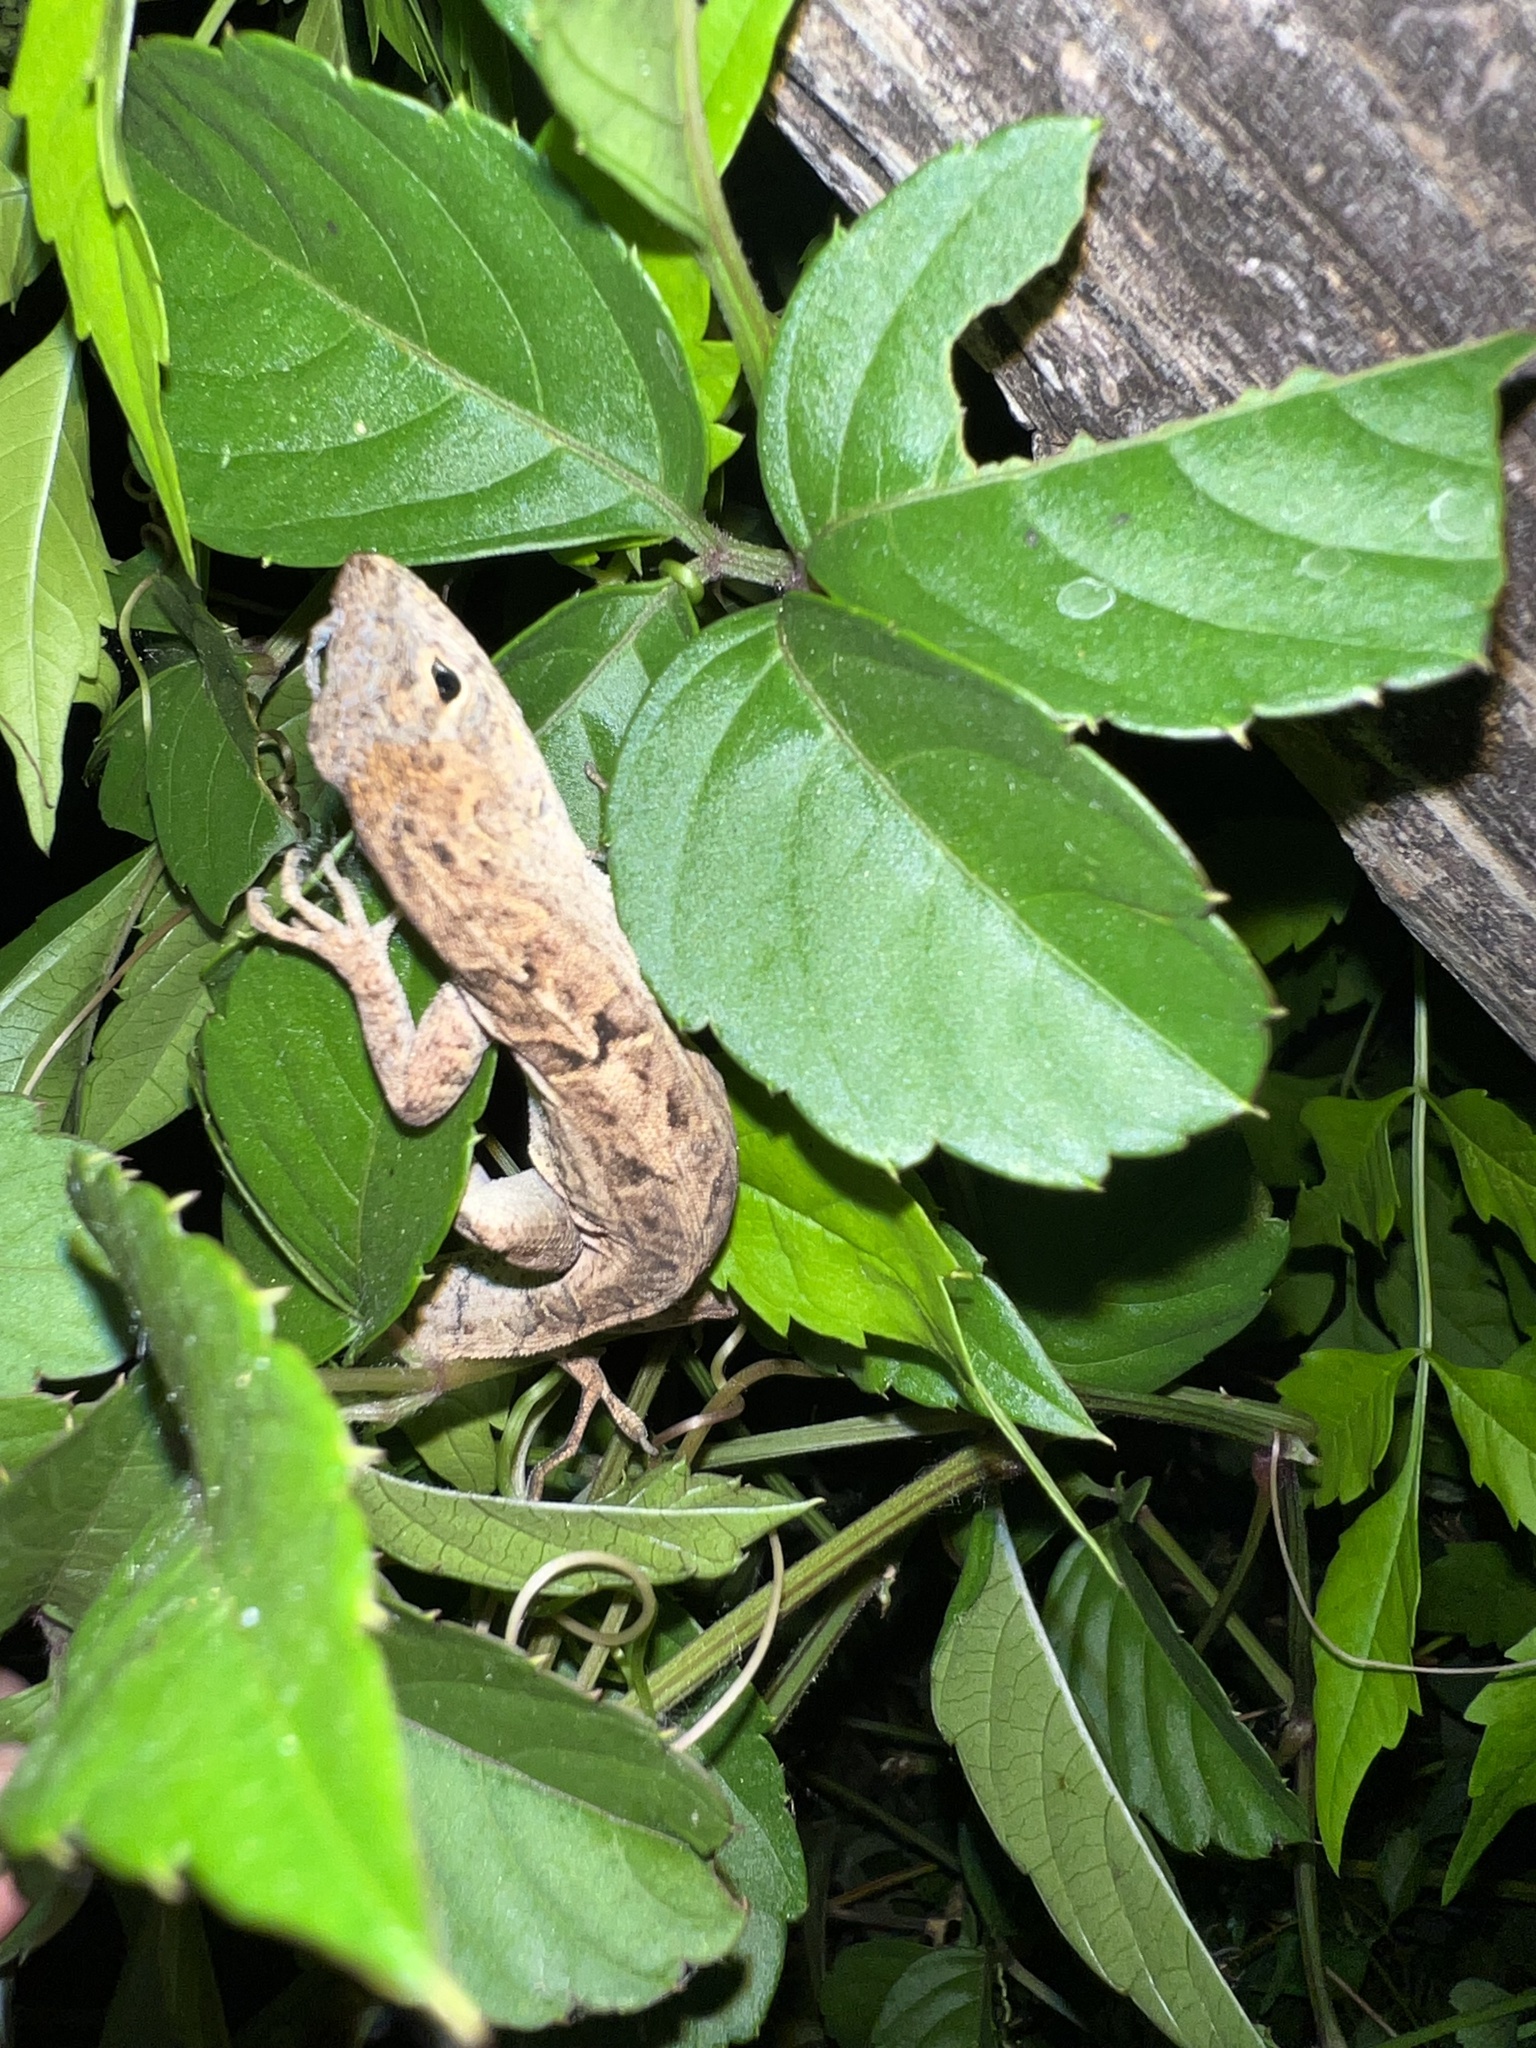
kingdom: Animalia
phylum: Chordata
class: Squamata
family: Dactyloidae
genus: Anolis
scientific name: Anolis sagrei
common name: Brown anole
